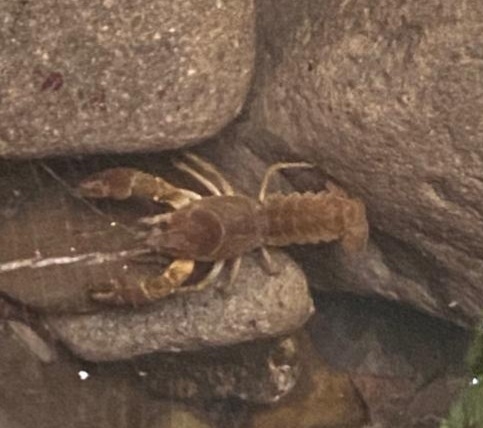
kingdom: Animalia
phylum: Arthropoda
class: Malacostraca
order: Decapoda
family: Astacidae
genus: Austropotamobius
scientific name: Austropotamobius pallipes
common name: White-clawed crayfish
